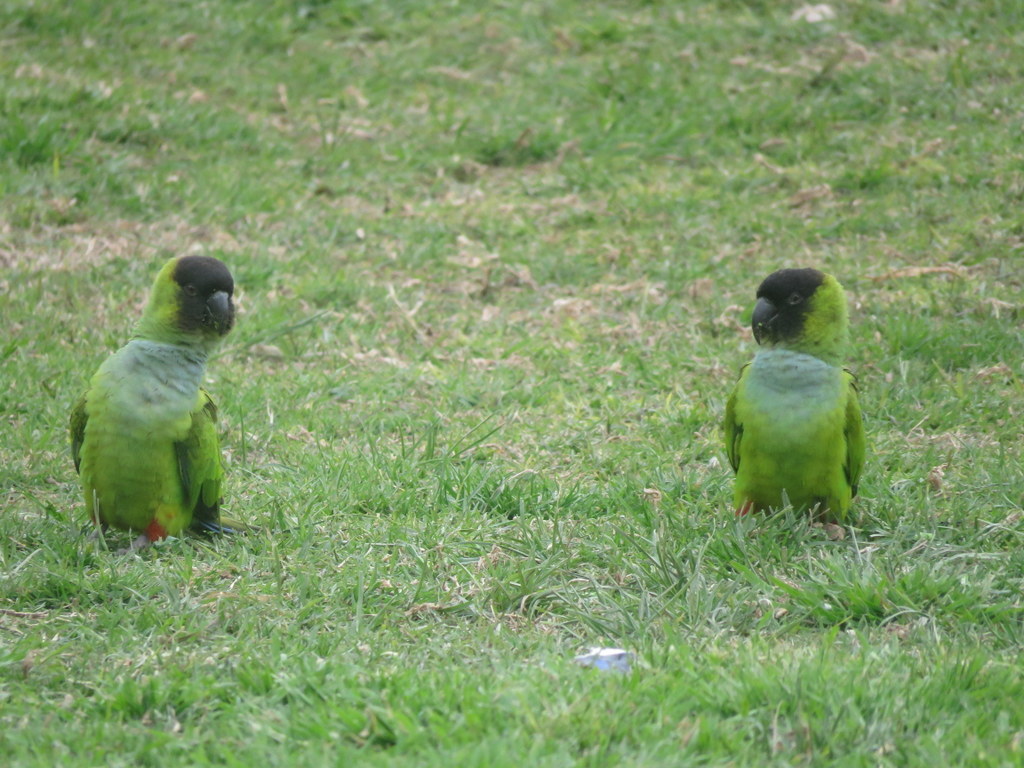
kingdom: Animalia
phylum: Chordata
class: Aves
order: Psittaciformes
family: Psittacidae
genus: Nandayus
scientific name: Nandayus nenday
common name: Nanday parakeet
